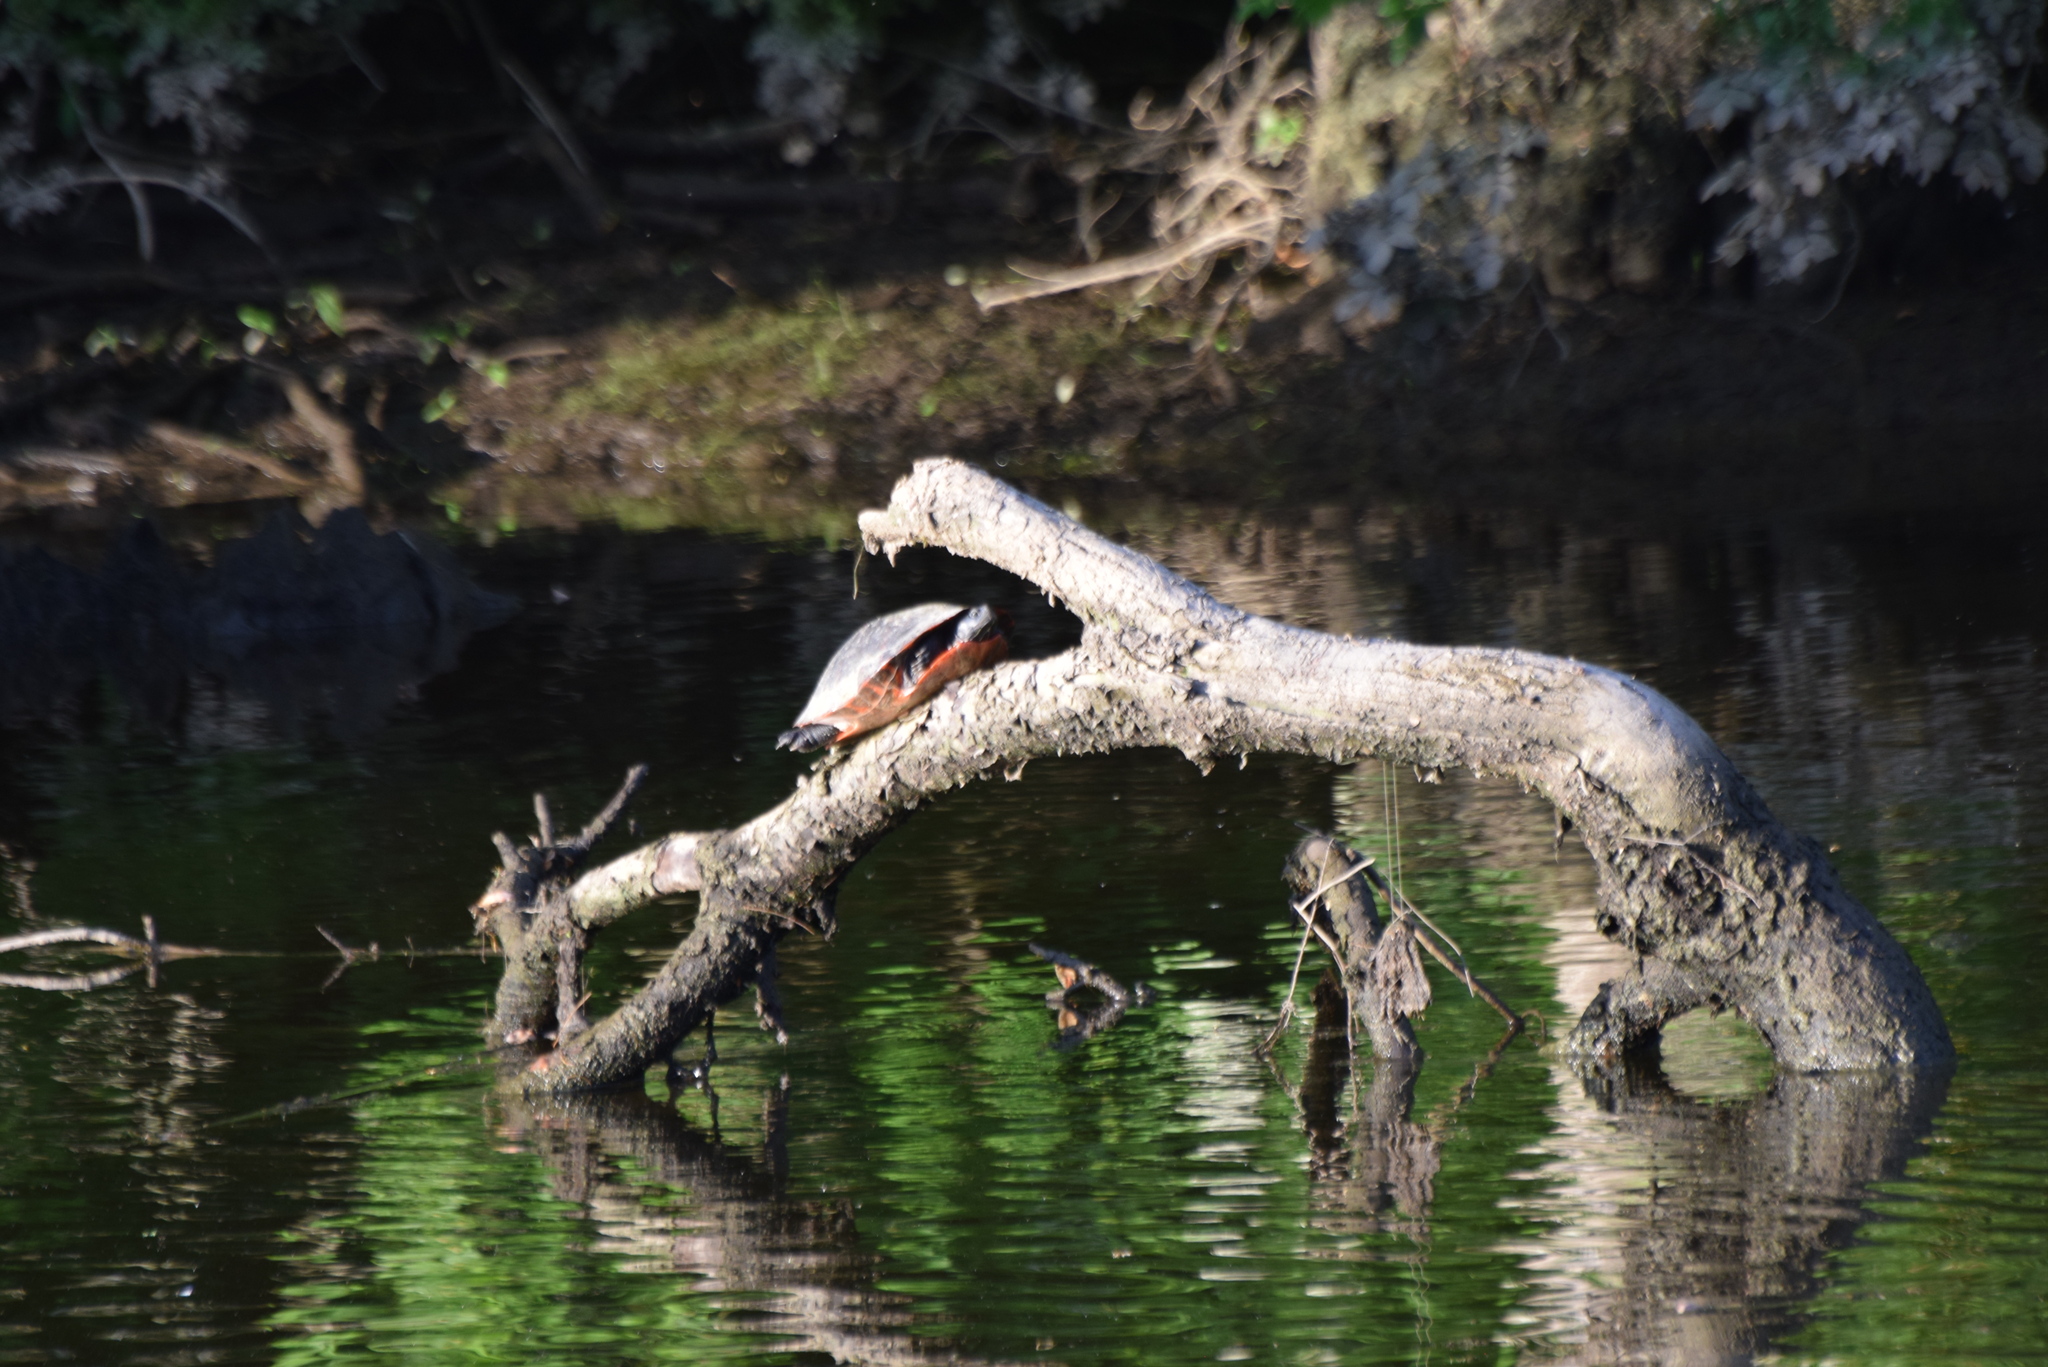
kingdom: Animalia
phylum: Chordata
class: Testudines
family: Emydidae
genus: Pseudemys
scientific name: Pseudemys rubriventris
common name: American red-bellied turtle
